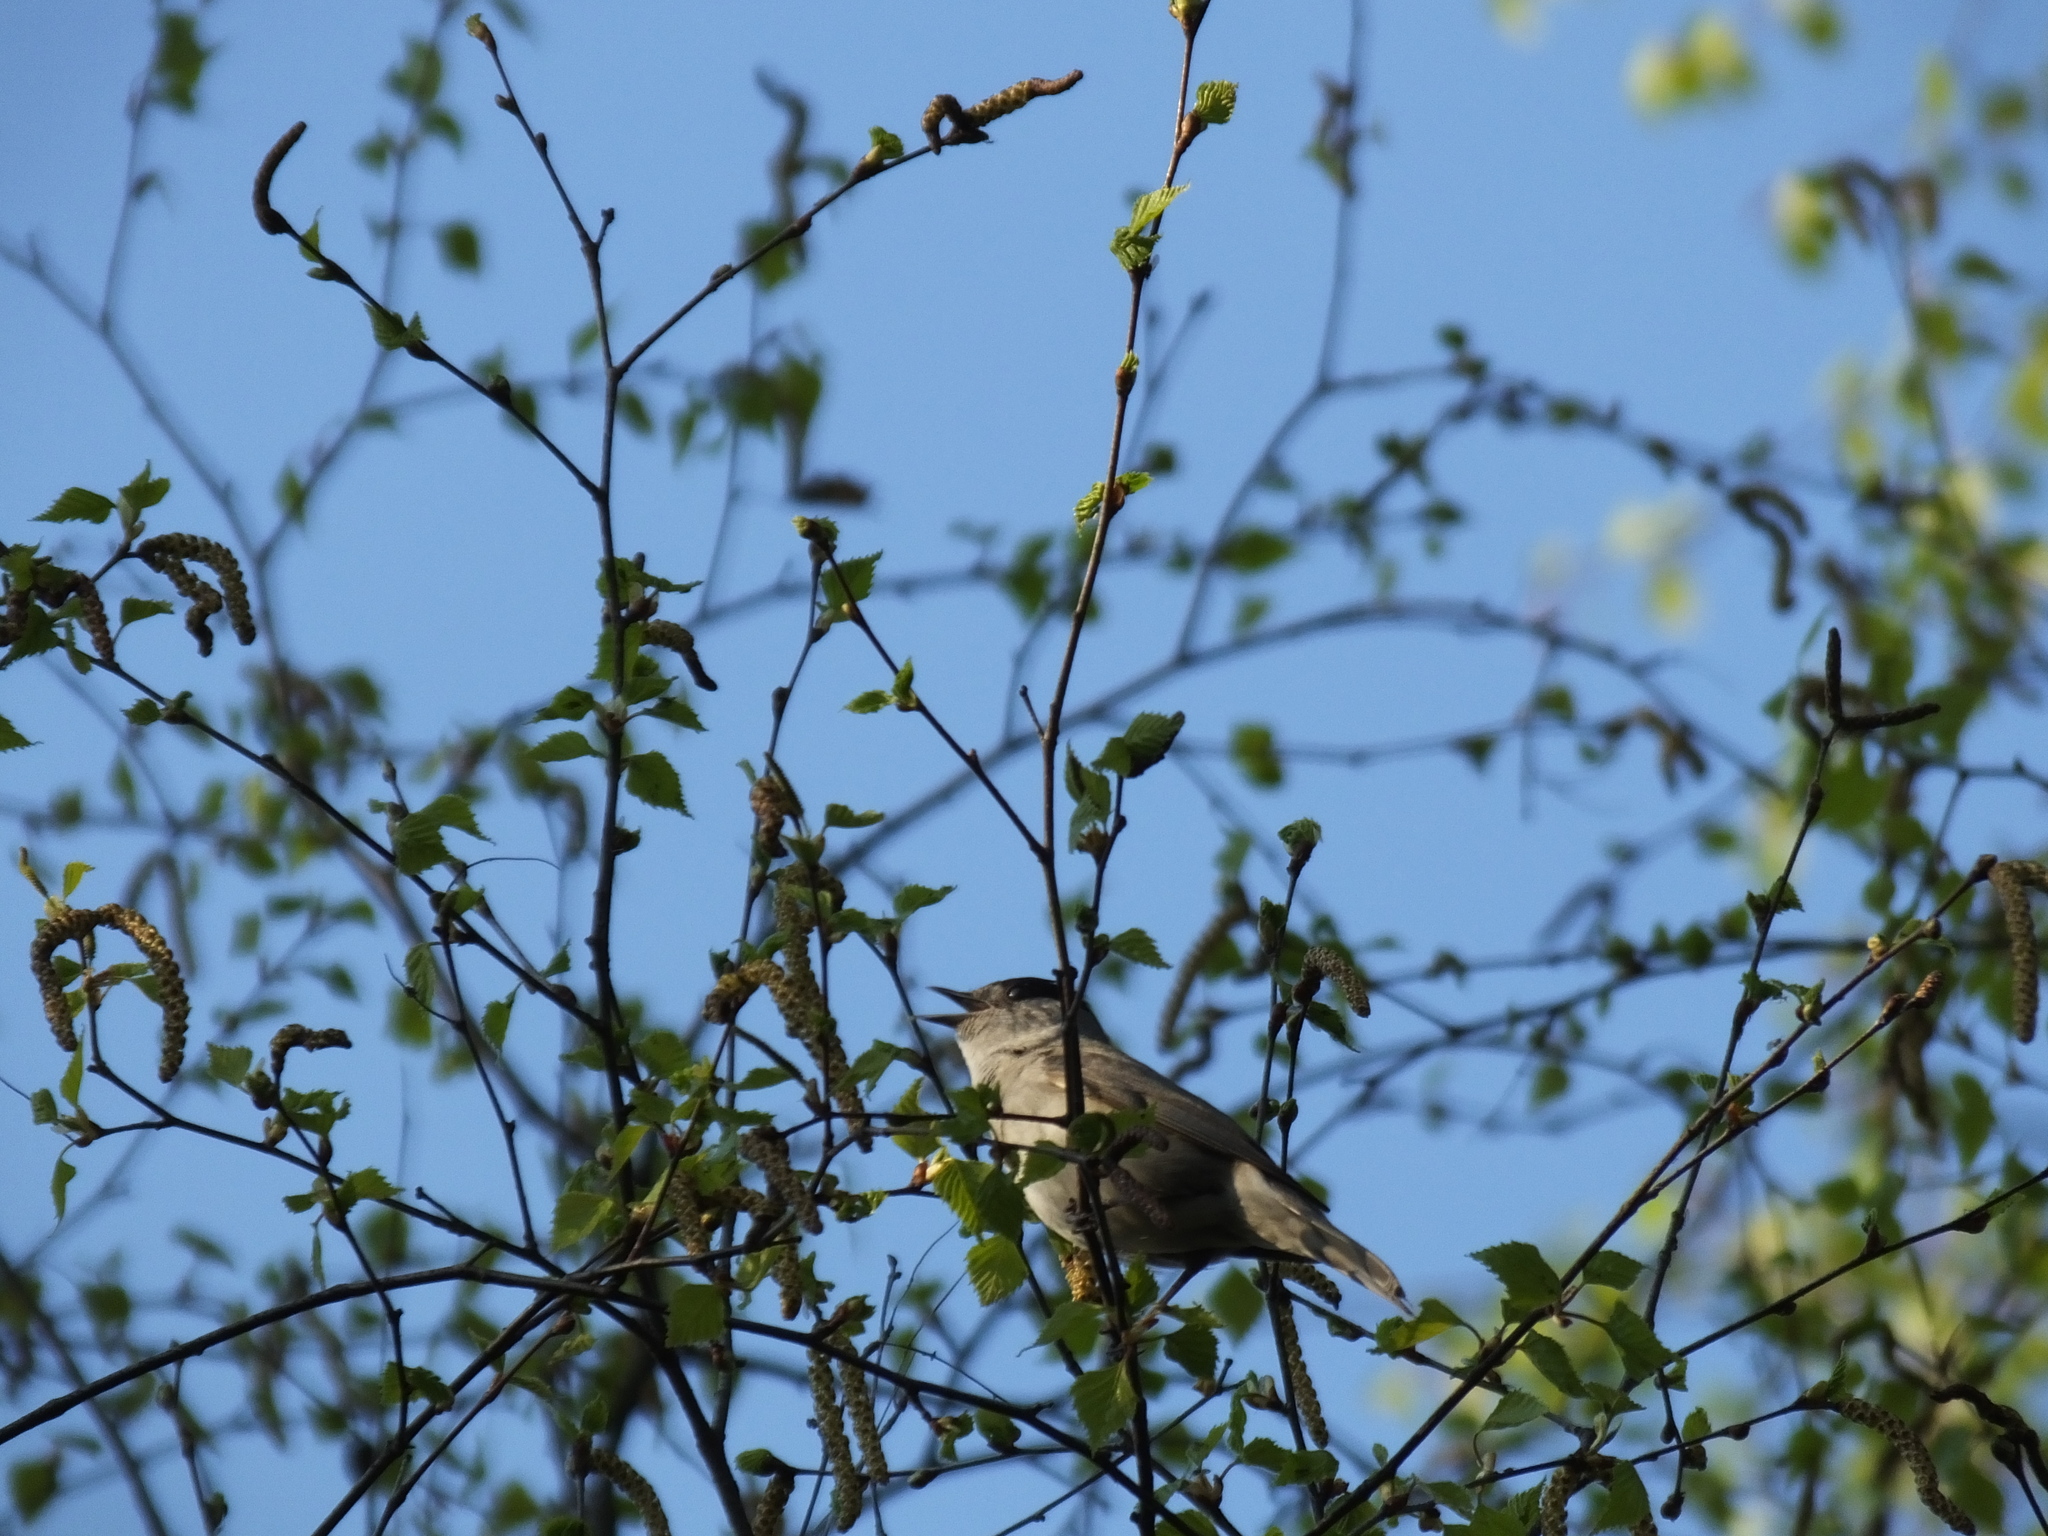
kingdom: Animalia
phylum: Chordata
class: Aves
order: Passeriformes
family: Sylviidae
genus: Sylvia
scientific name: Sylvia atricapilla
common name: Eurasian blackcap
